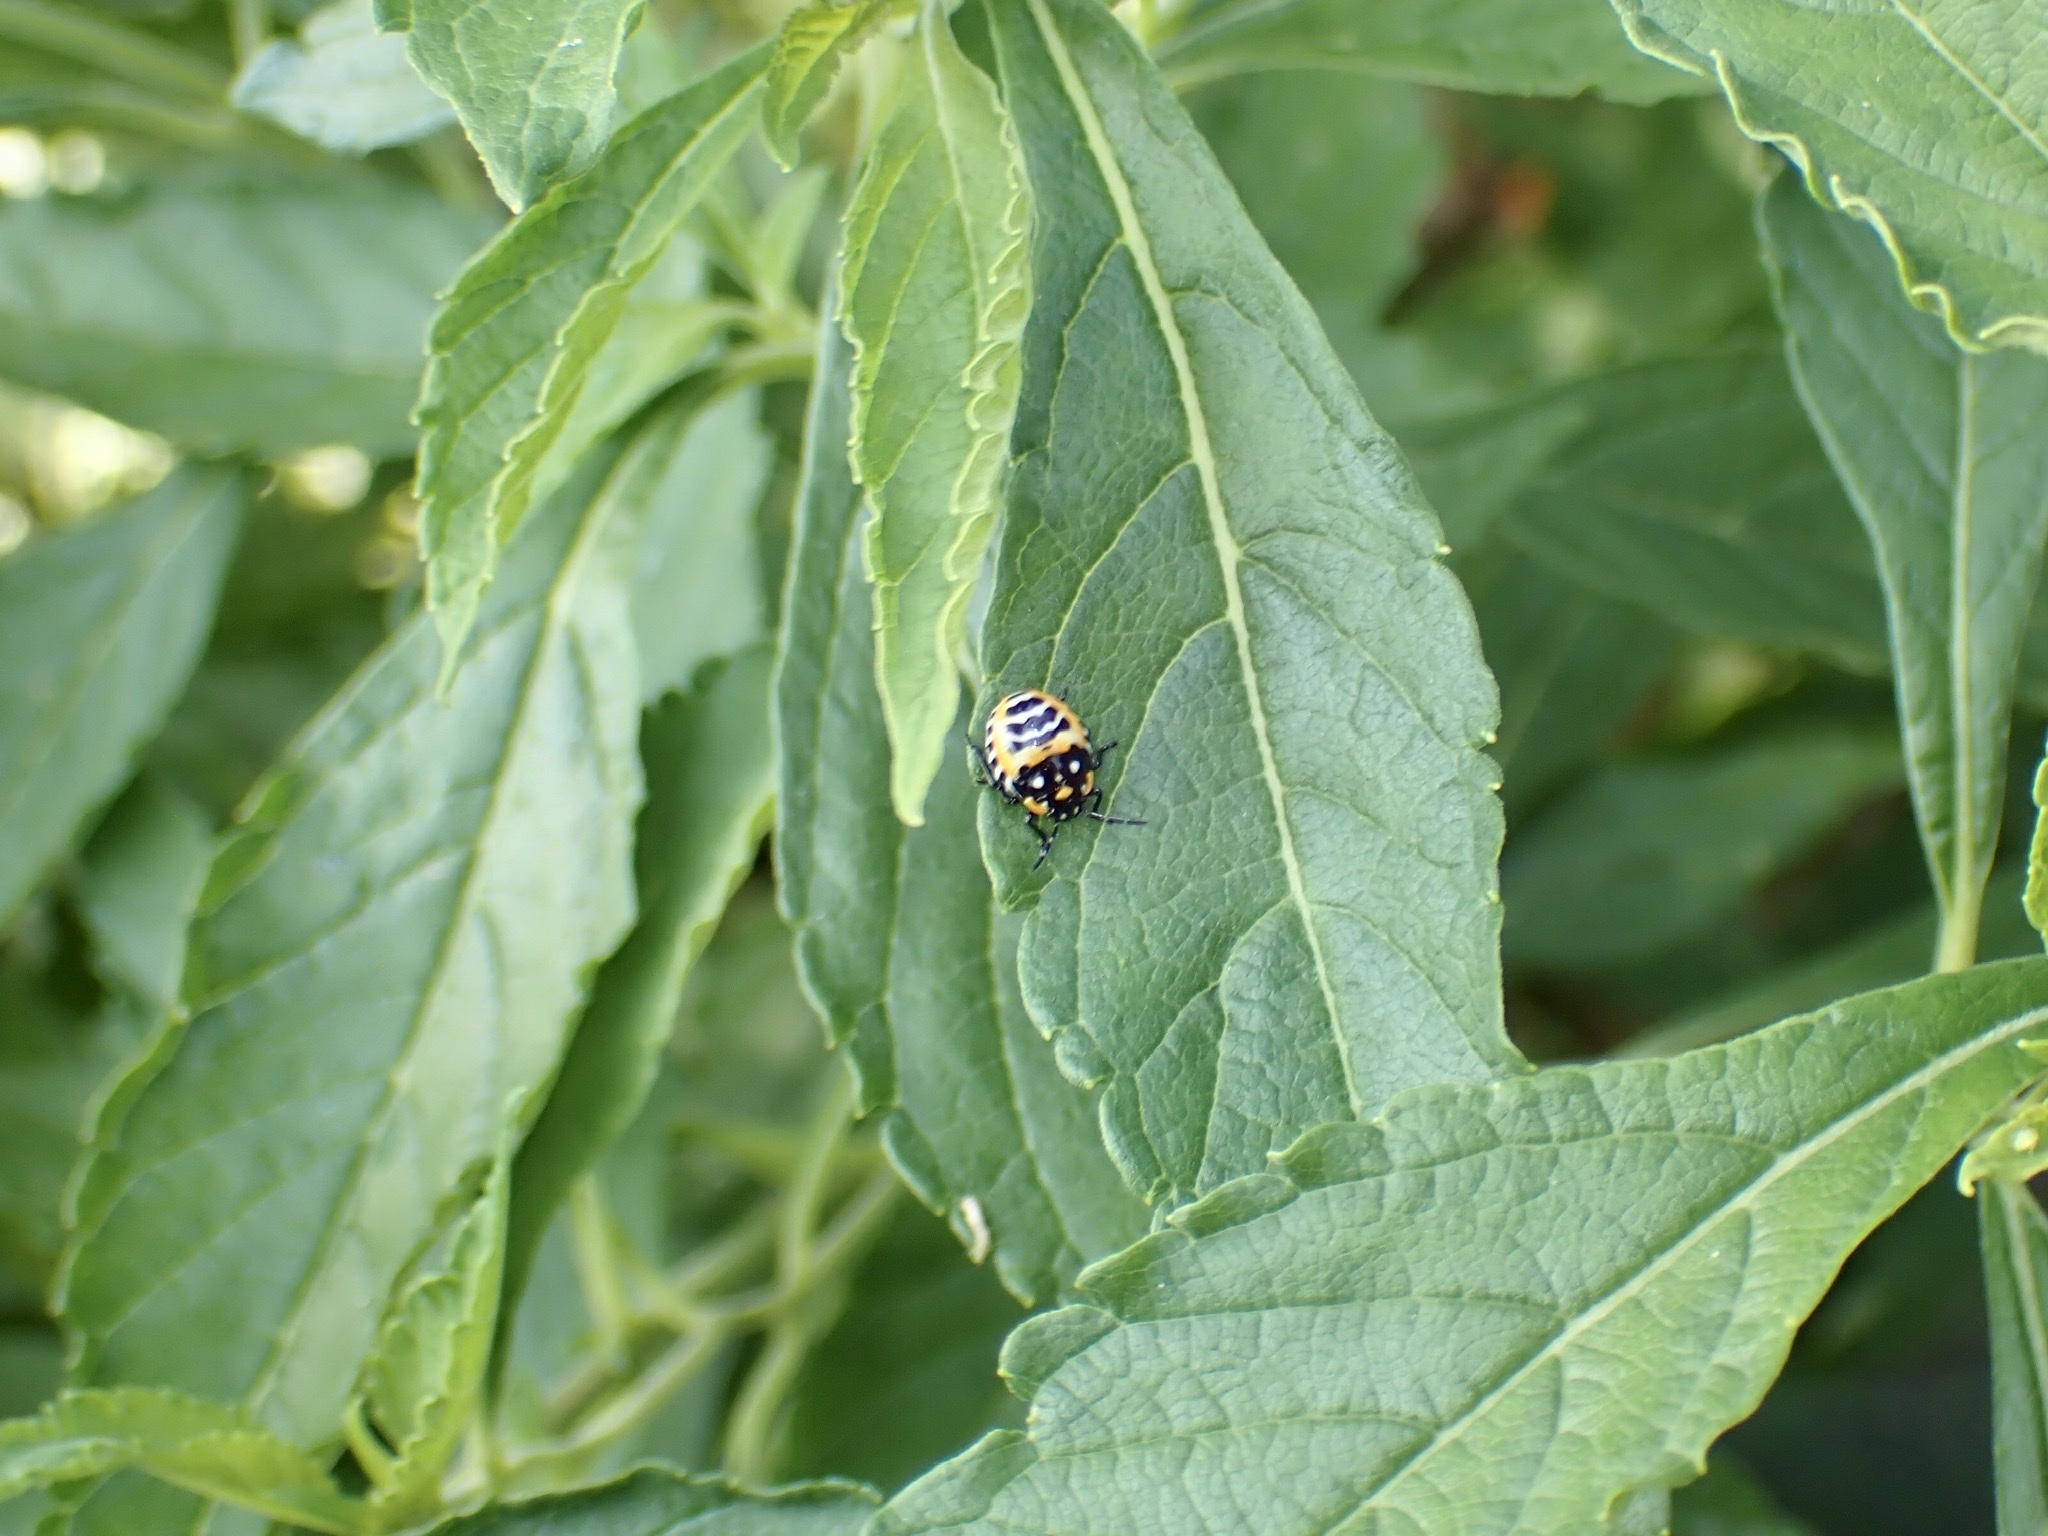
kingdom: Animalia
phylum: Arthropoda
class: Insecta
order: Hemiptera
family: Pentatomidae
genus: Murgantia
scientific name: Murgantia histrionica
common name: Harlequin bug
